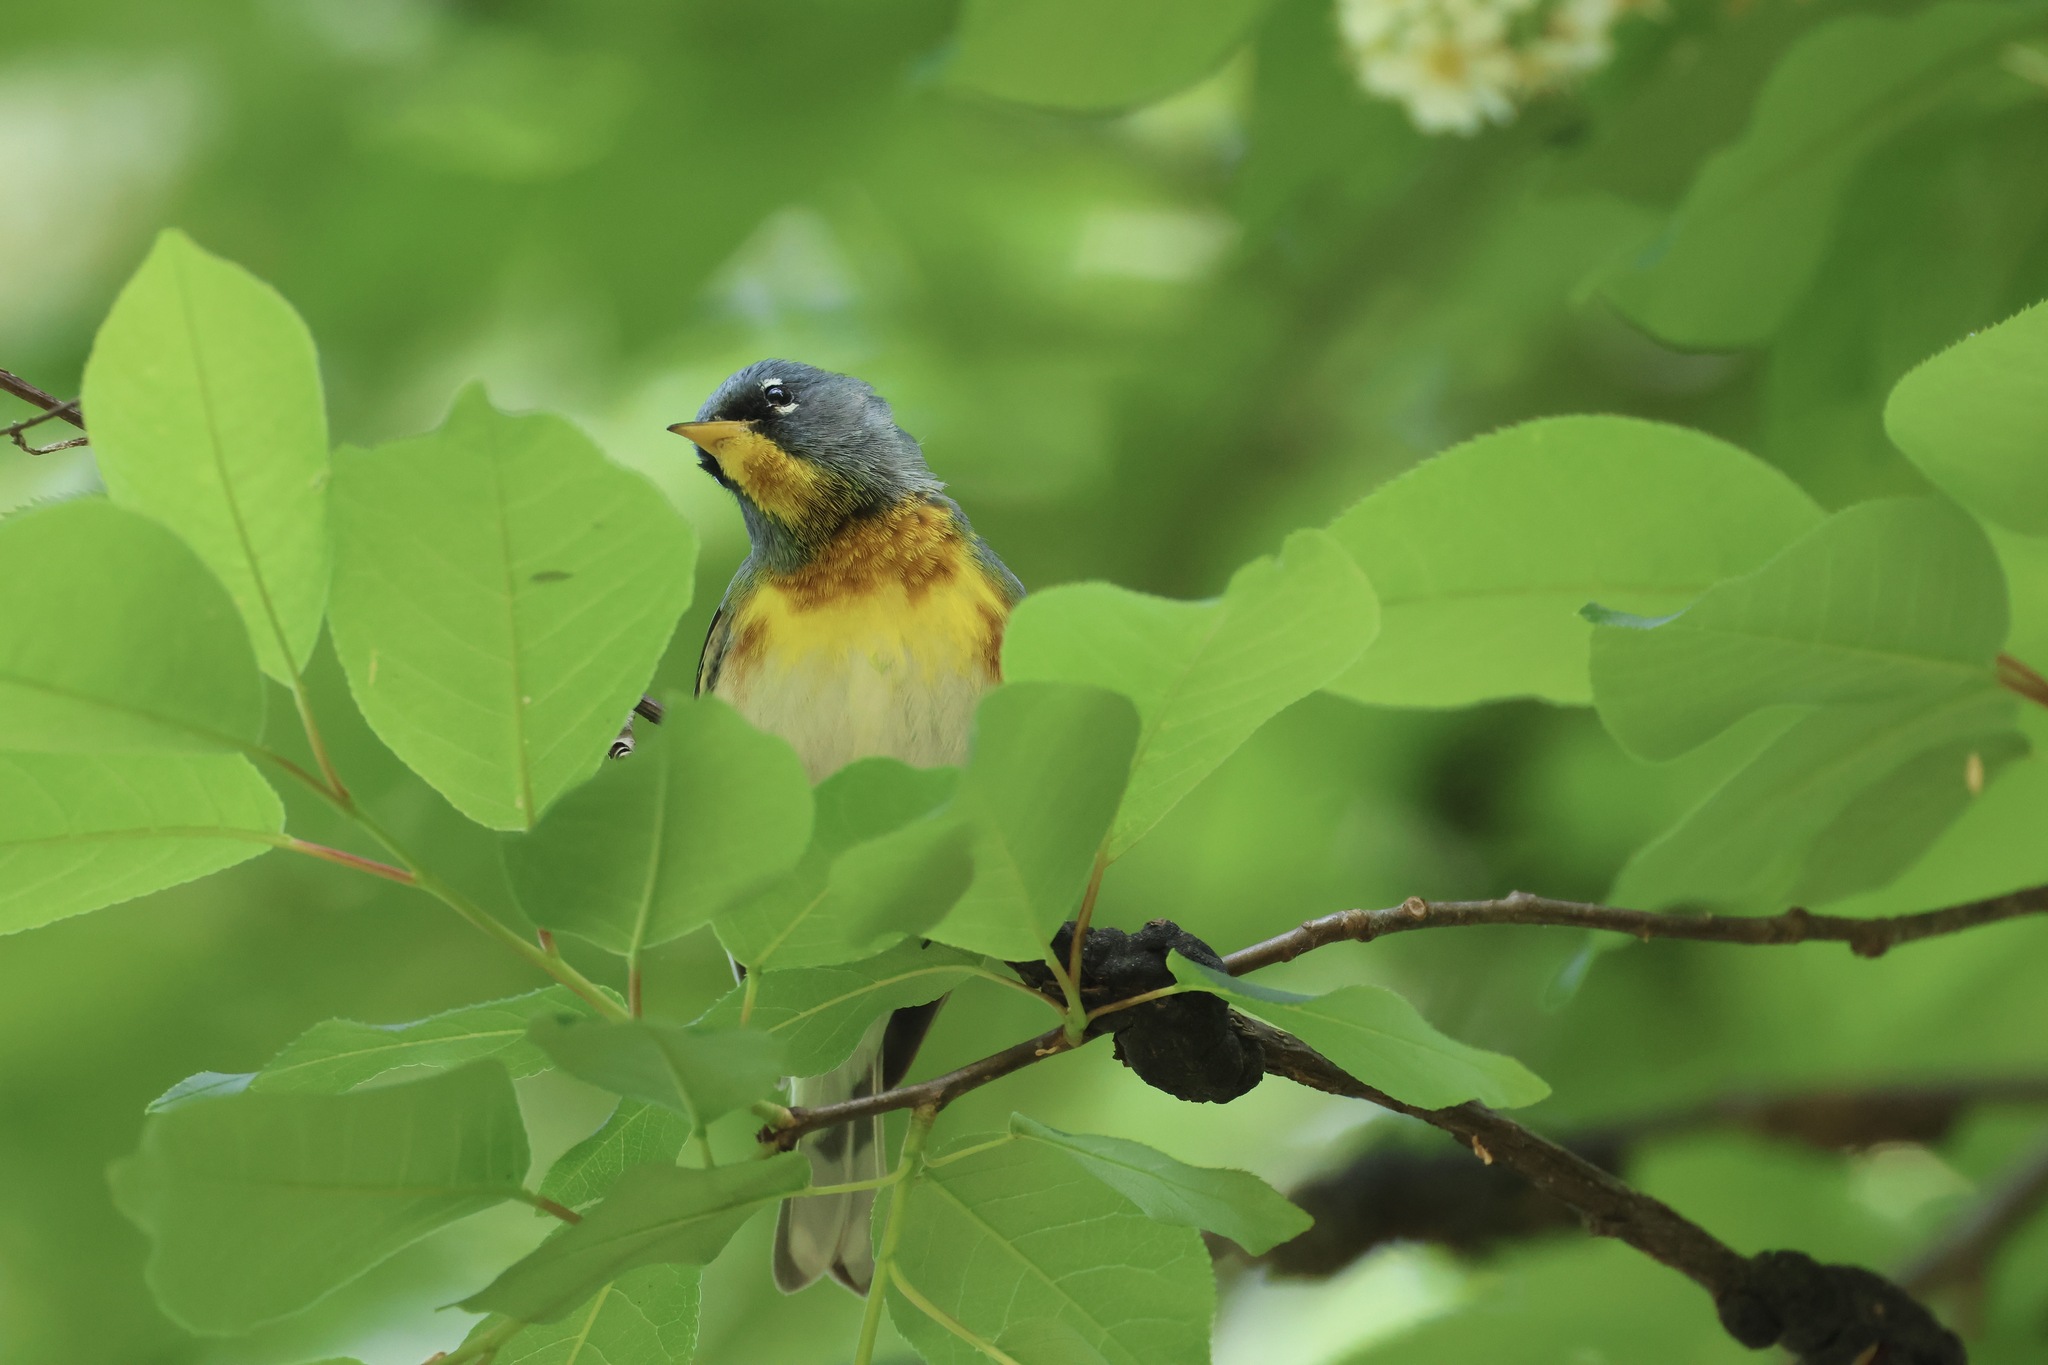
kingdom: Animalia
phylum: Chordata
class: Aves
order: Passeriformes
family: Parulidae
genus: Setophaga
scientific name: Setophaga americana
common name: Northern parula
